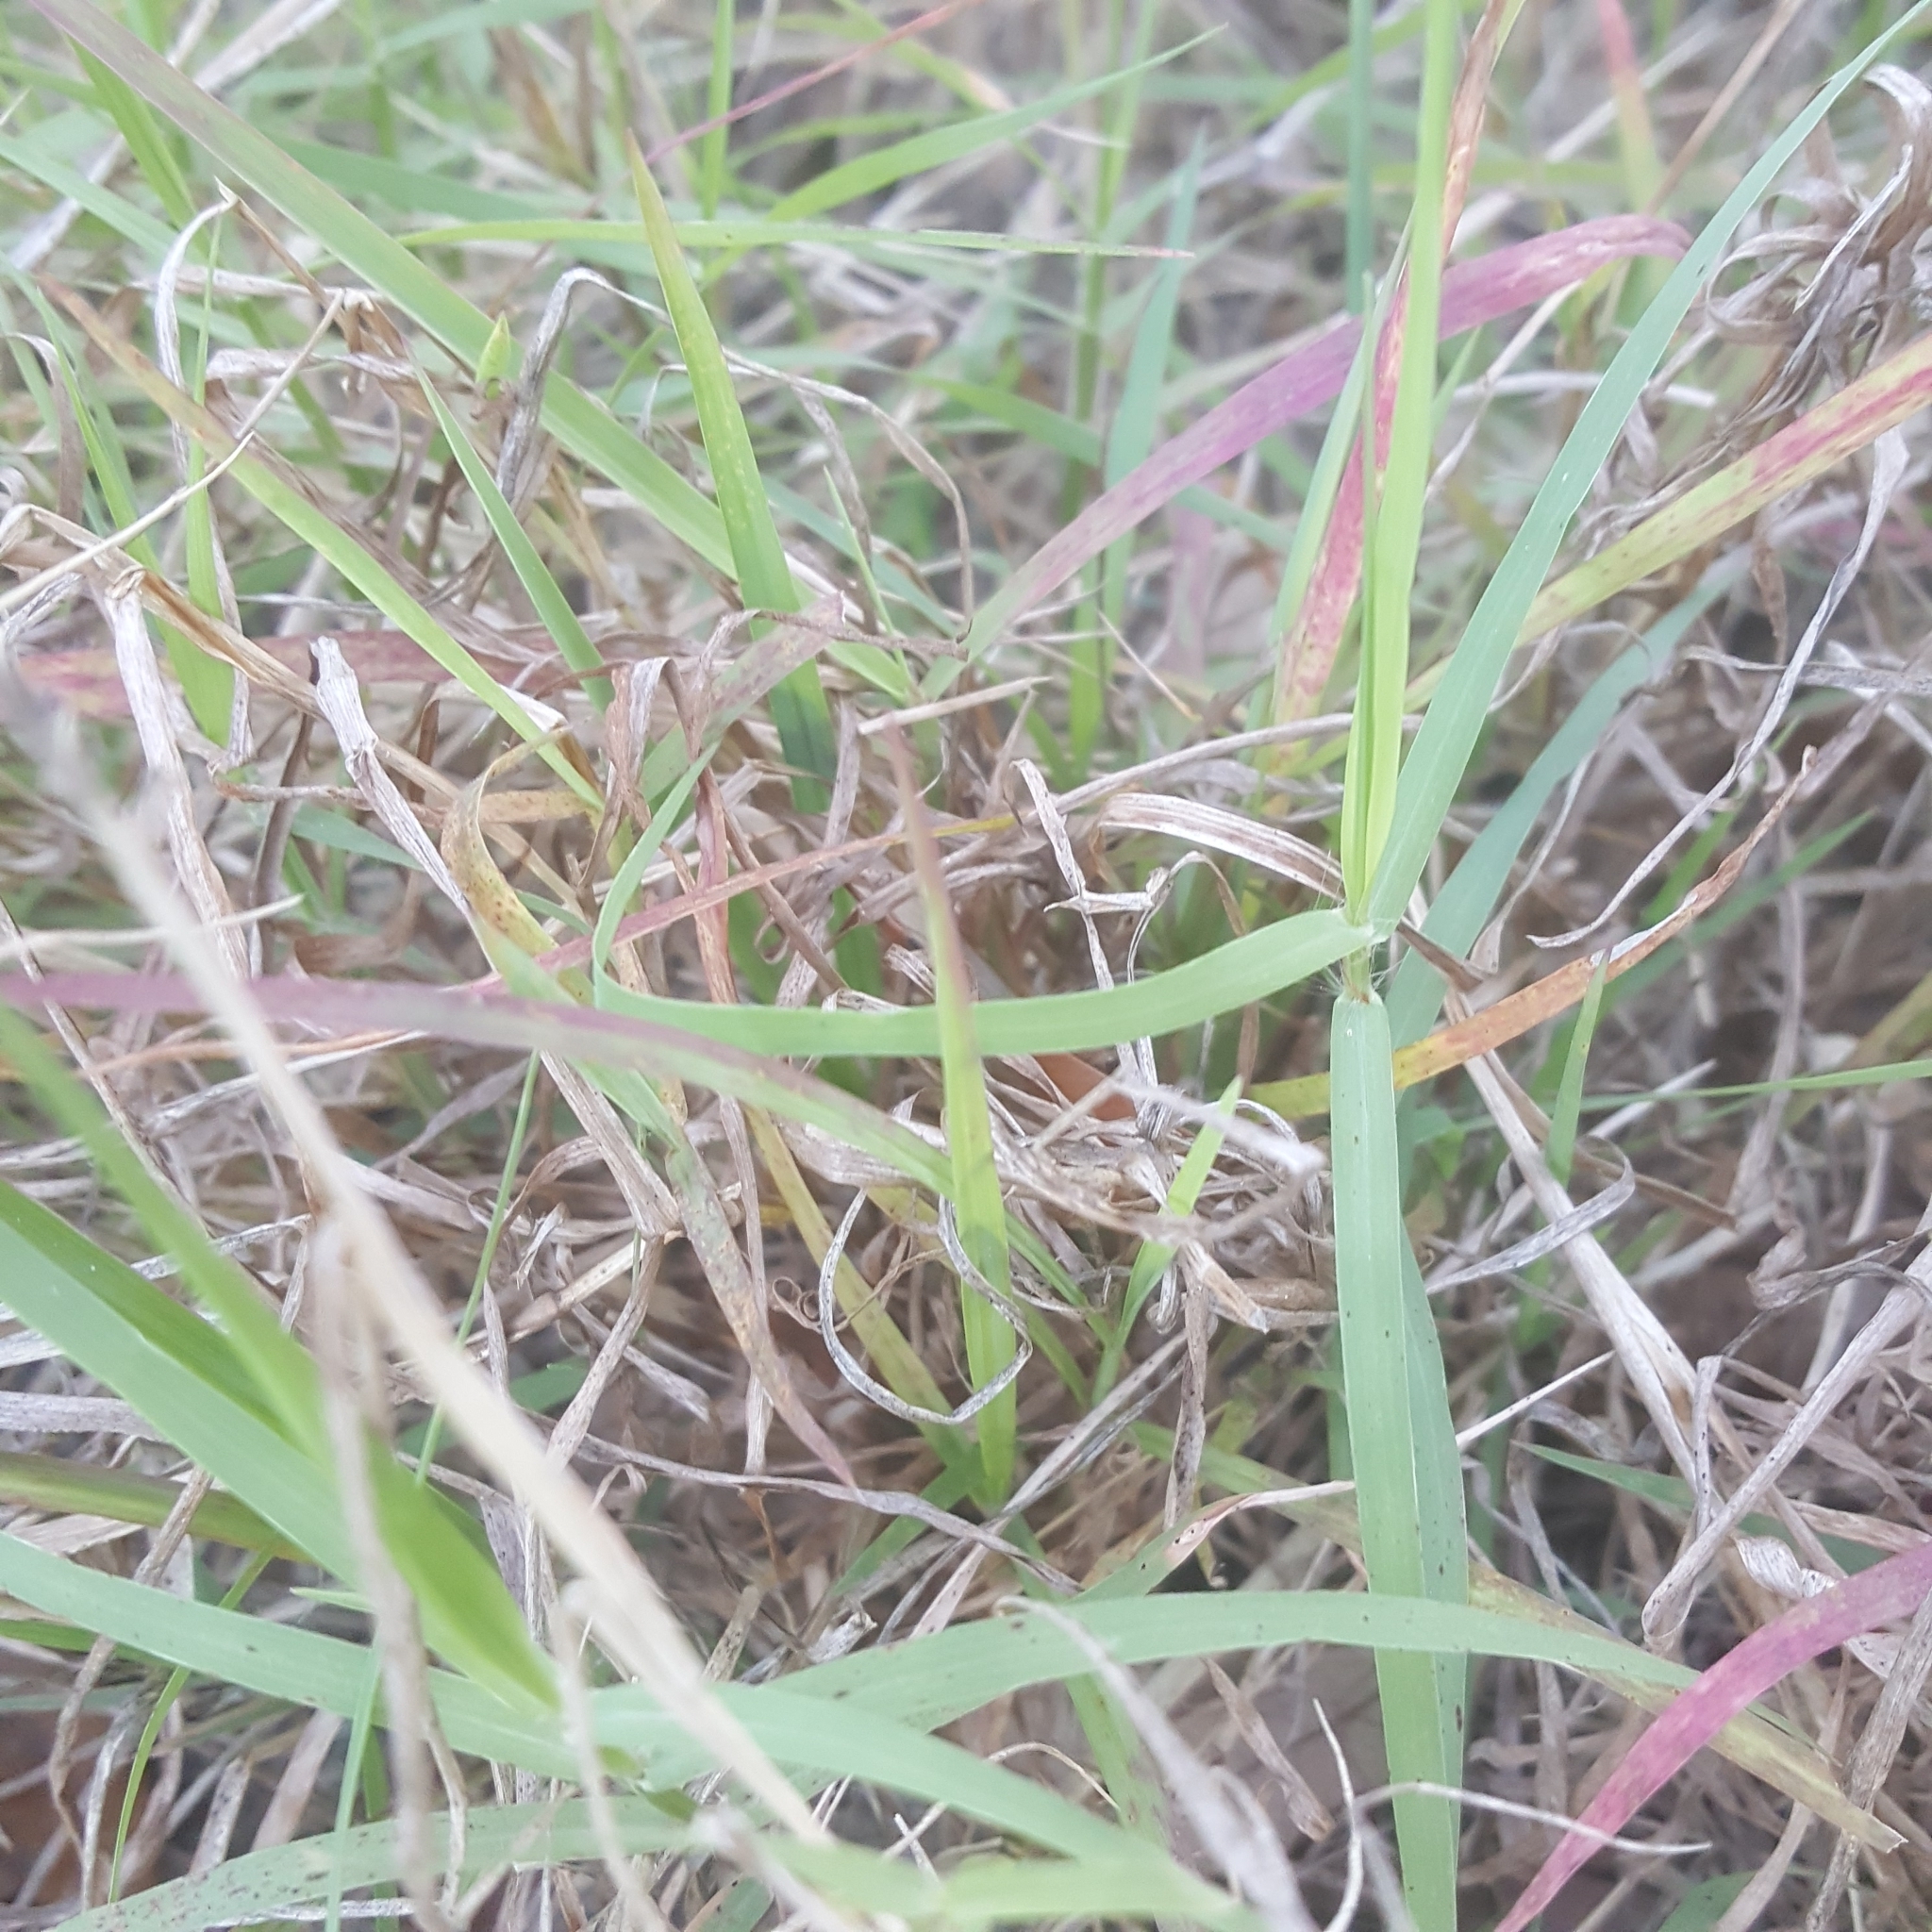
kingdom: Plantae
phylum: Tracheophyta
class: Liliopsida
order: Poales
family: Poaceae
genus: Cynodon
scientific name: Cynodon dactylon
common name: Bermuda grass
